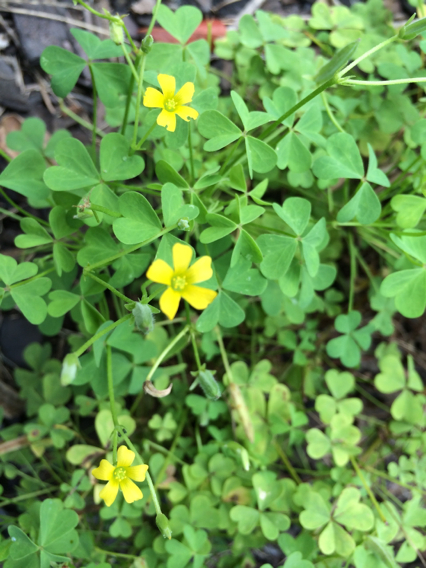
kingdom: Plantae
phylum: Tracheophyta
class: Magnoliopsida
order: Oxalidales
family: Oxalidaceae
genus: Oxalis
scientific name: Oxalis dillenii
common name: Sussex yellow-sorrel
